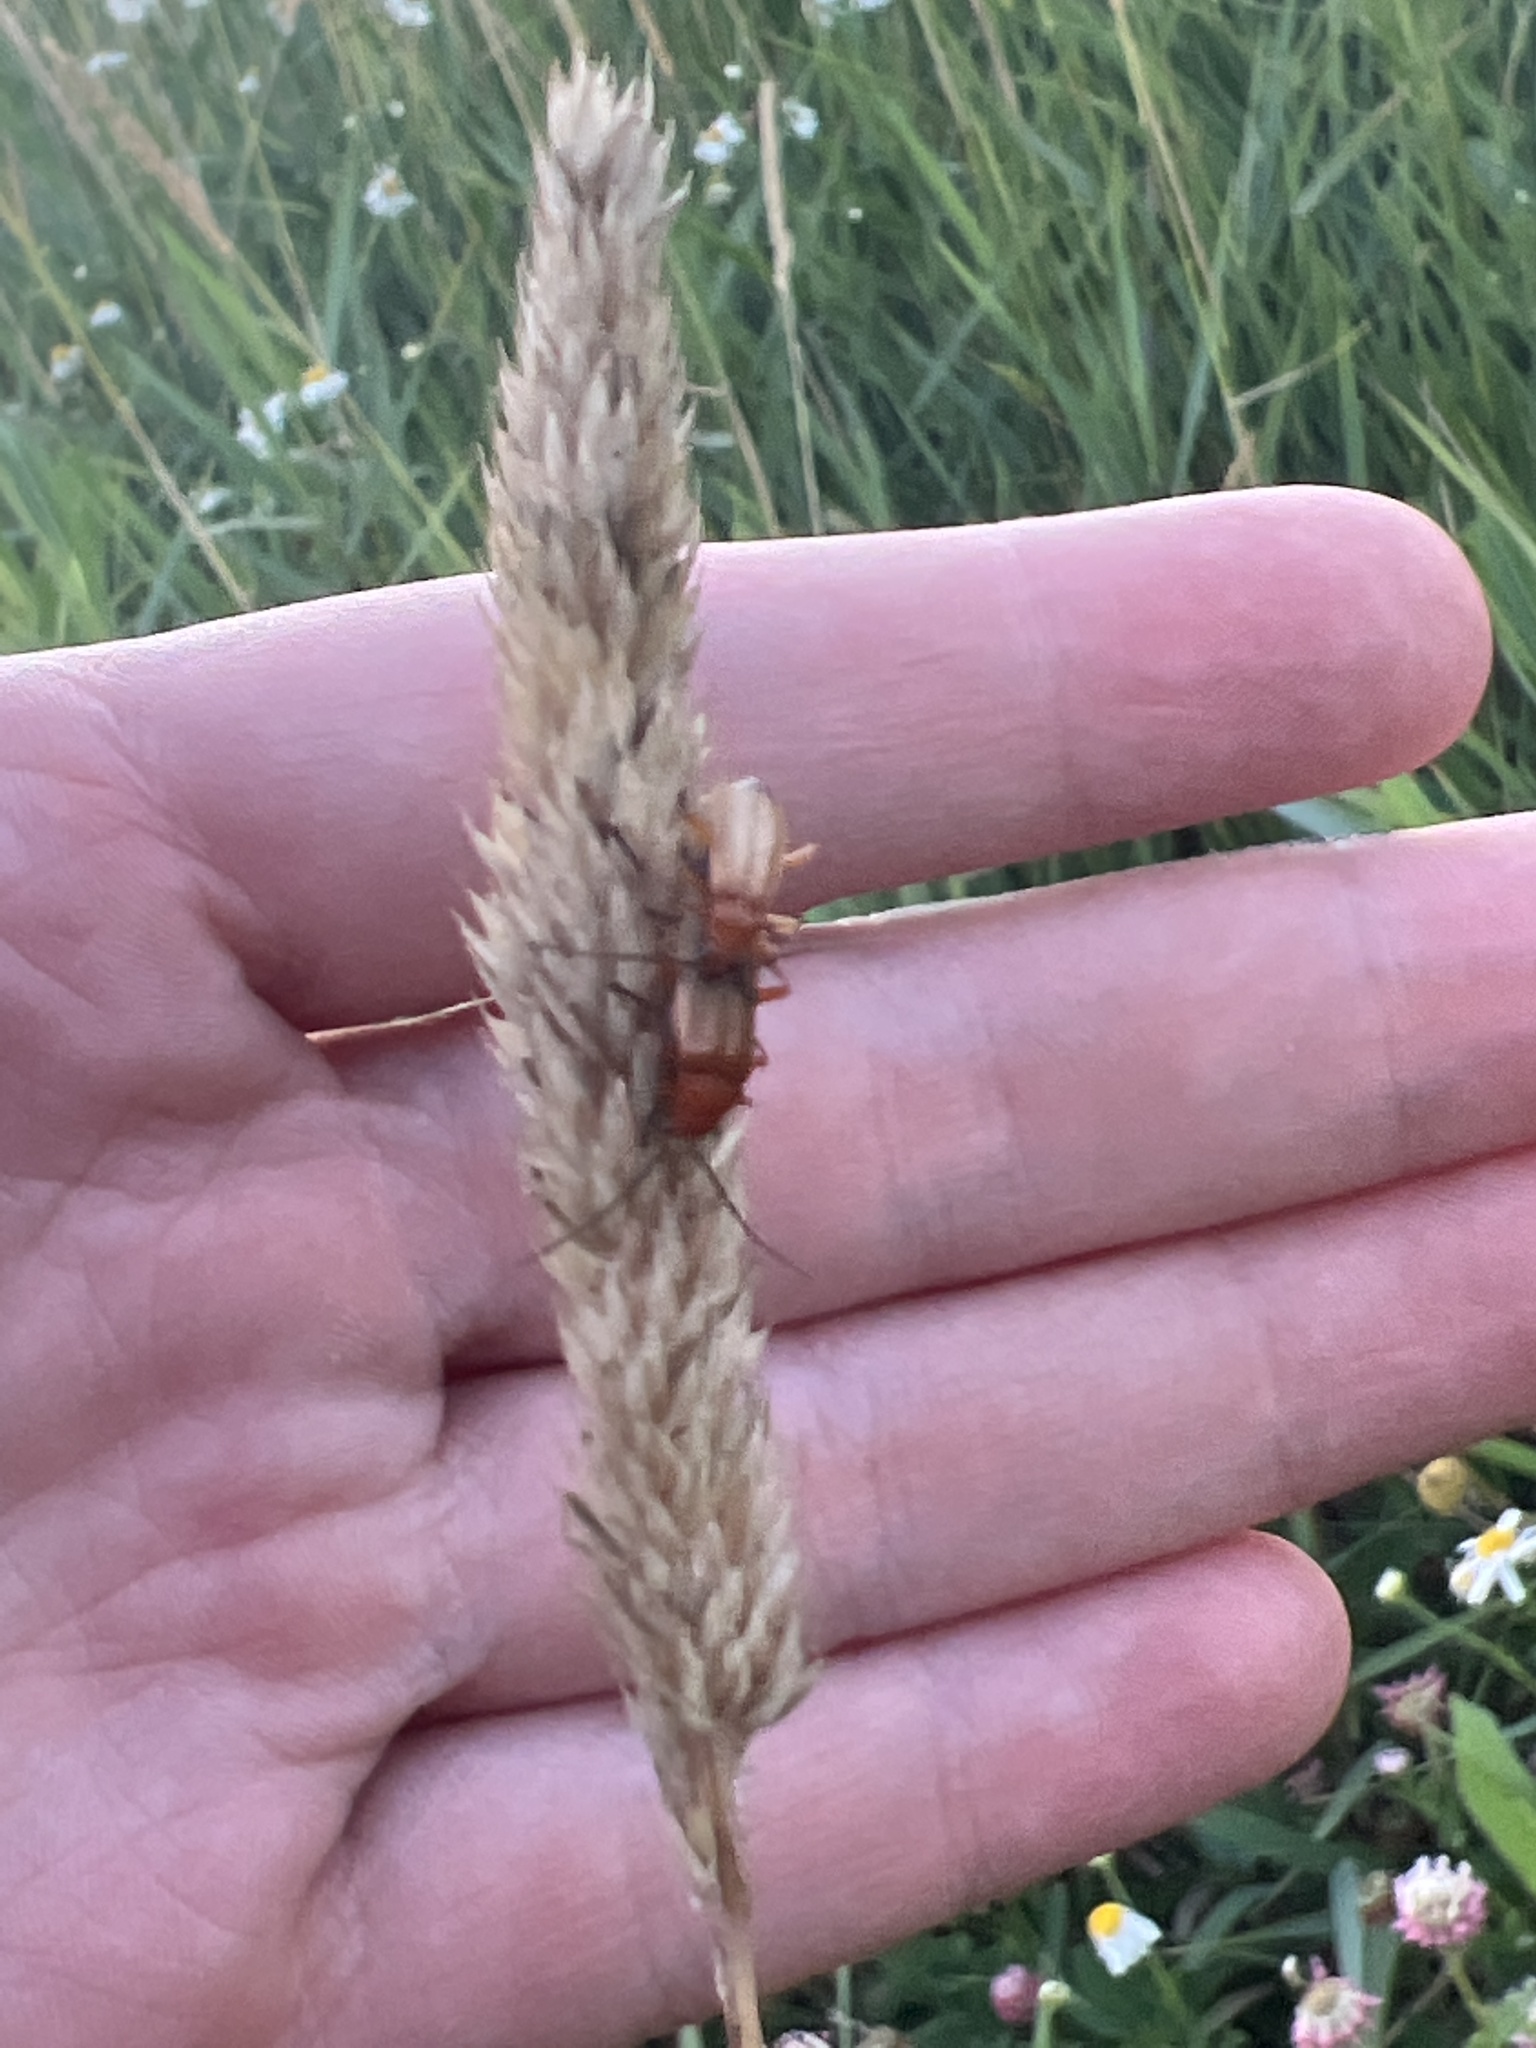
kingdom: Animalia
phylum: Arthropoda
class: Insecta
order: Coleoptera
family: Cantharidae
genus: Rhagonycha
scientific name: Rhagonycha fulva
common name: Common red soldier beetle
